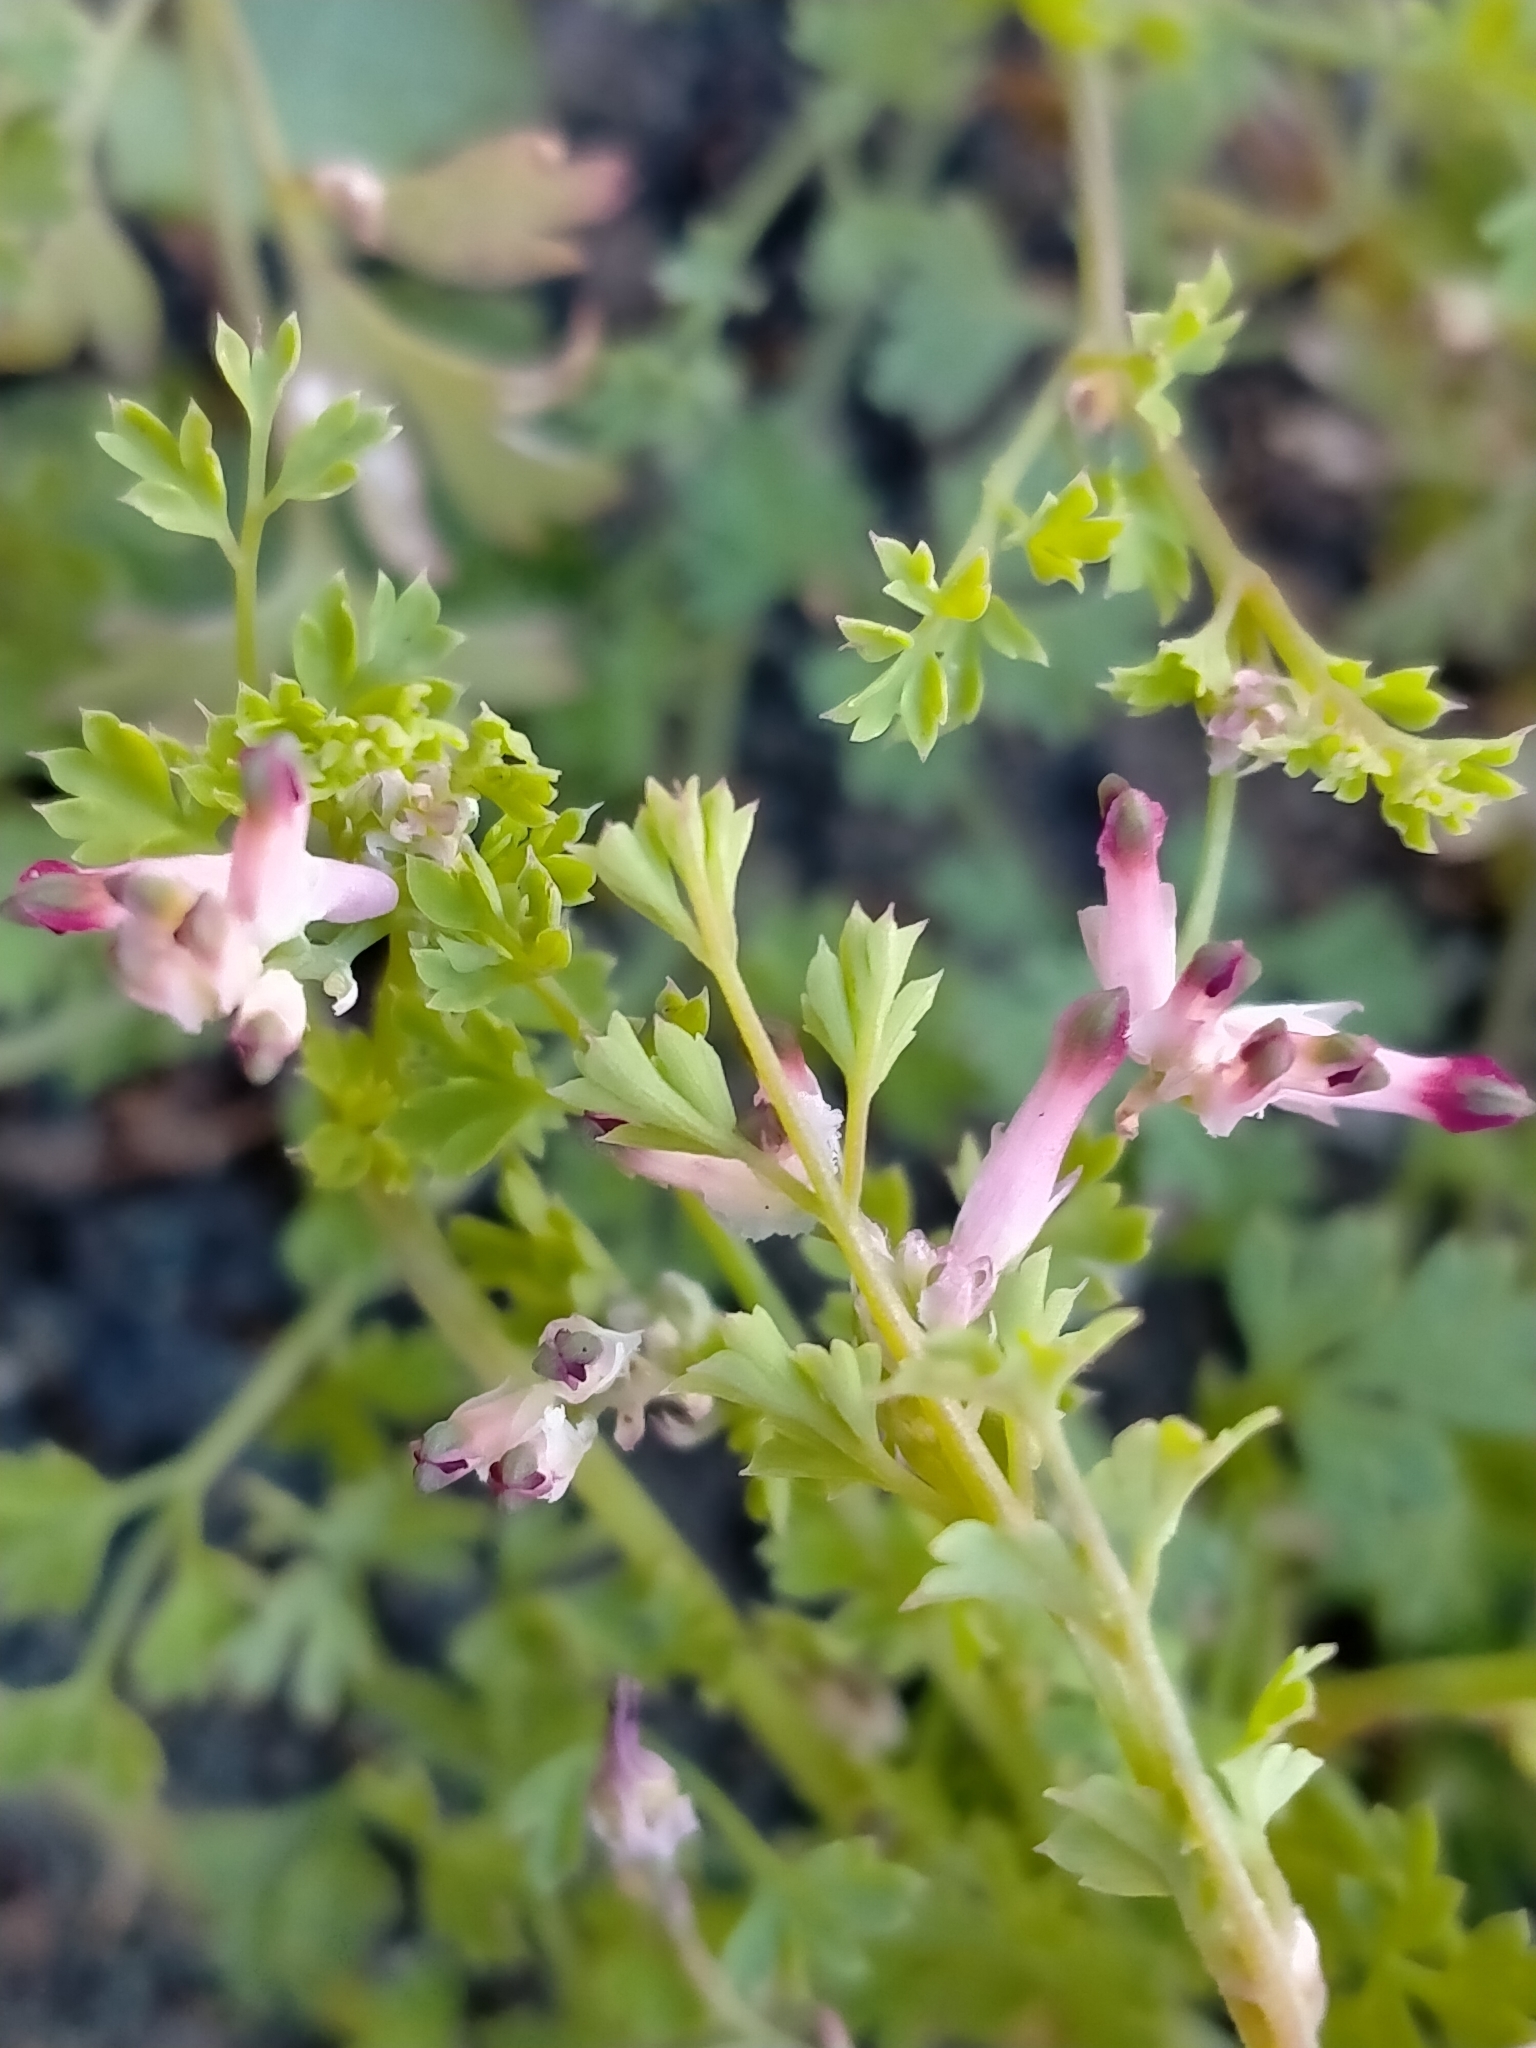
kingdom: Plantae
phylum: Tracheophyta
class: Magnoliopsida
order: Ranunculales
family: Papaveraceae
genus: Fumaria
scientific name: Fumaria muralis
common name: Common ramping-fumitory
